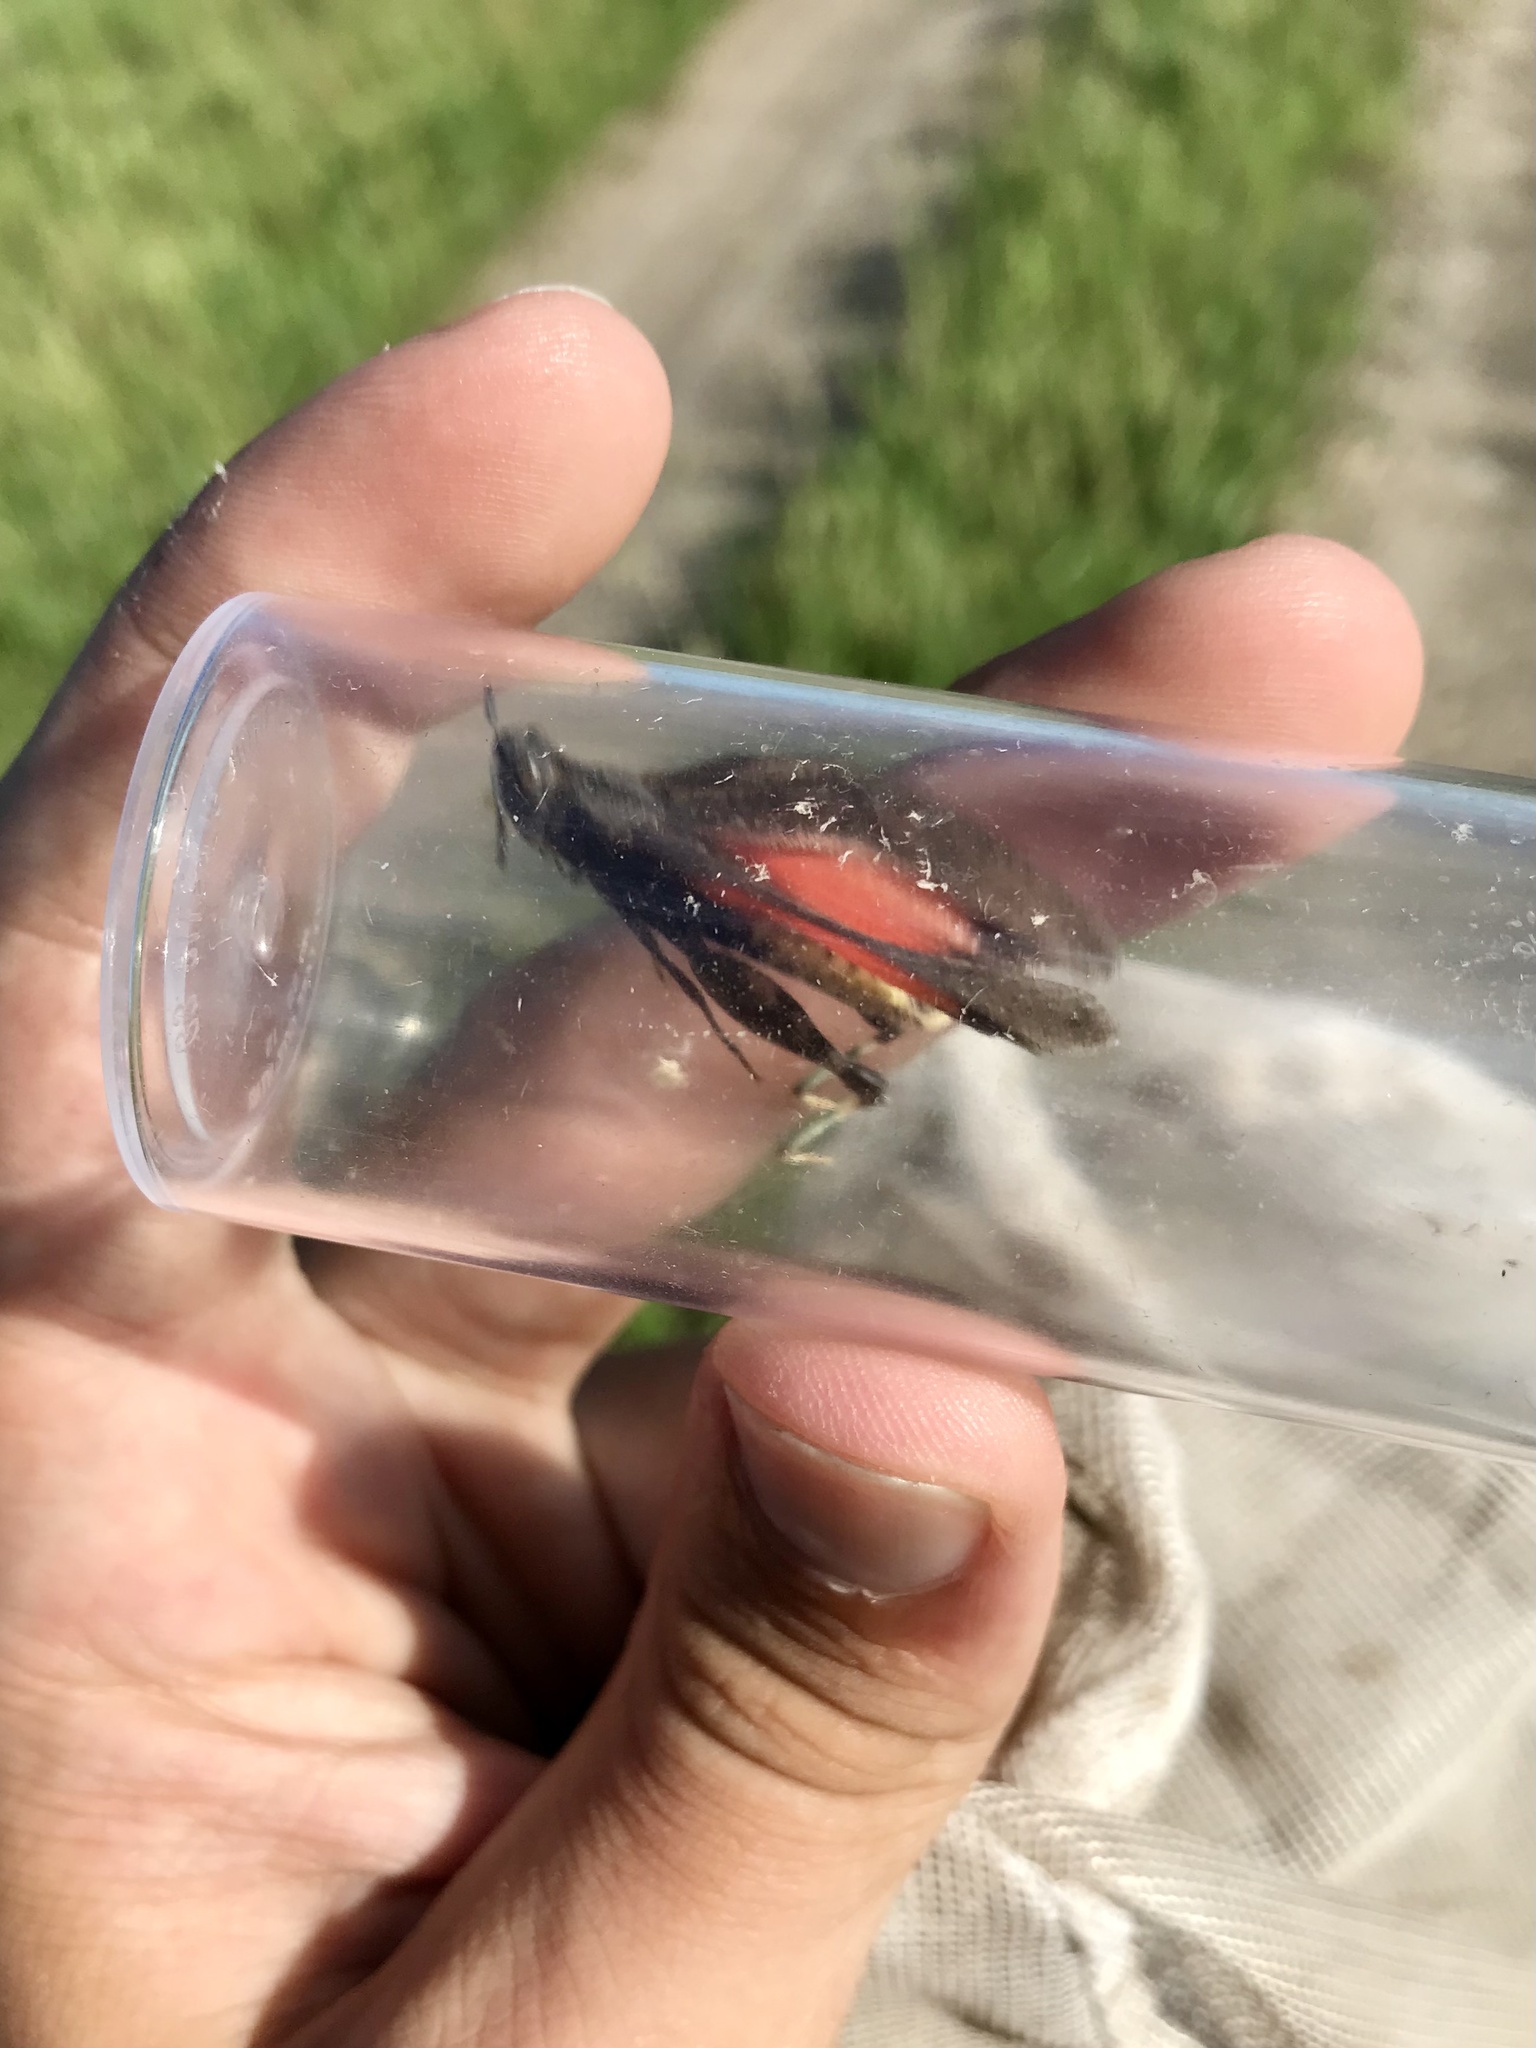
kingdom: Animalia
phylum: Arthropoda
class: Insecta
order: Orthoptera
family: Acrididae
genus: Arphia
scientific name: Arphia conspersa
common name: Speckle-winged rangeland grasshopper
